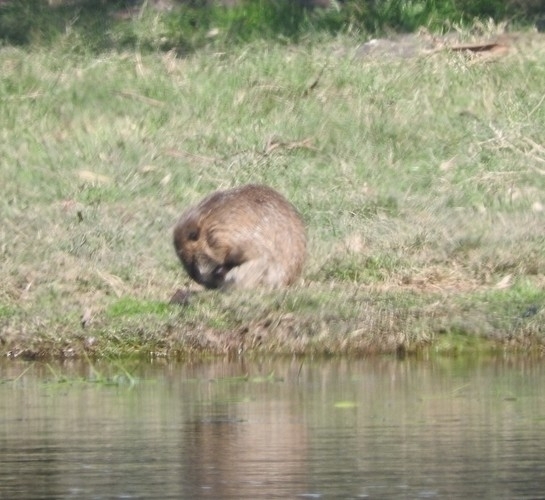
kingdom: Animalia
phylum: Chordata
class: Mammalia
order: Rodentia
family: Myocastoridae
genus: Myocastor
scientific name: Myocastor coypus
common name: Coypu
